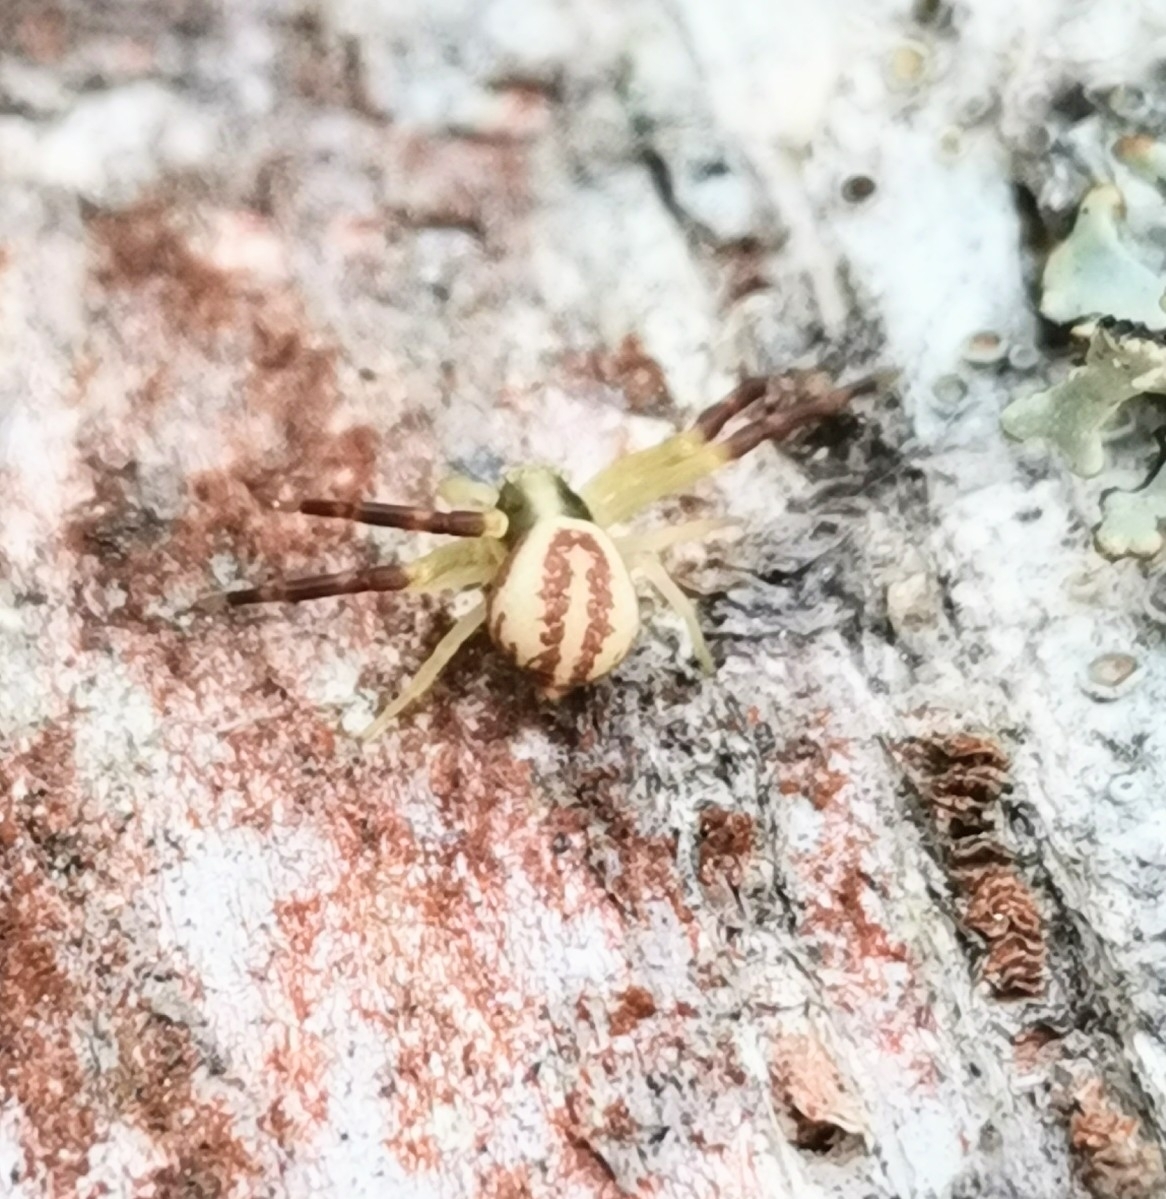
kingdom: Animalia
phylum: Arthropoda
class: Arachnida
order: Araneae
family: Thomisidae
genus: Misumena
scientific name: Misumena vatia
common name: Goldenrod crab spider
